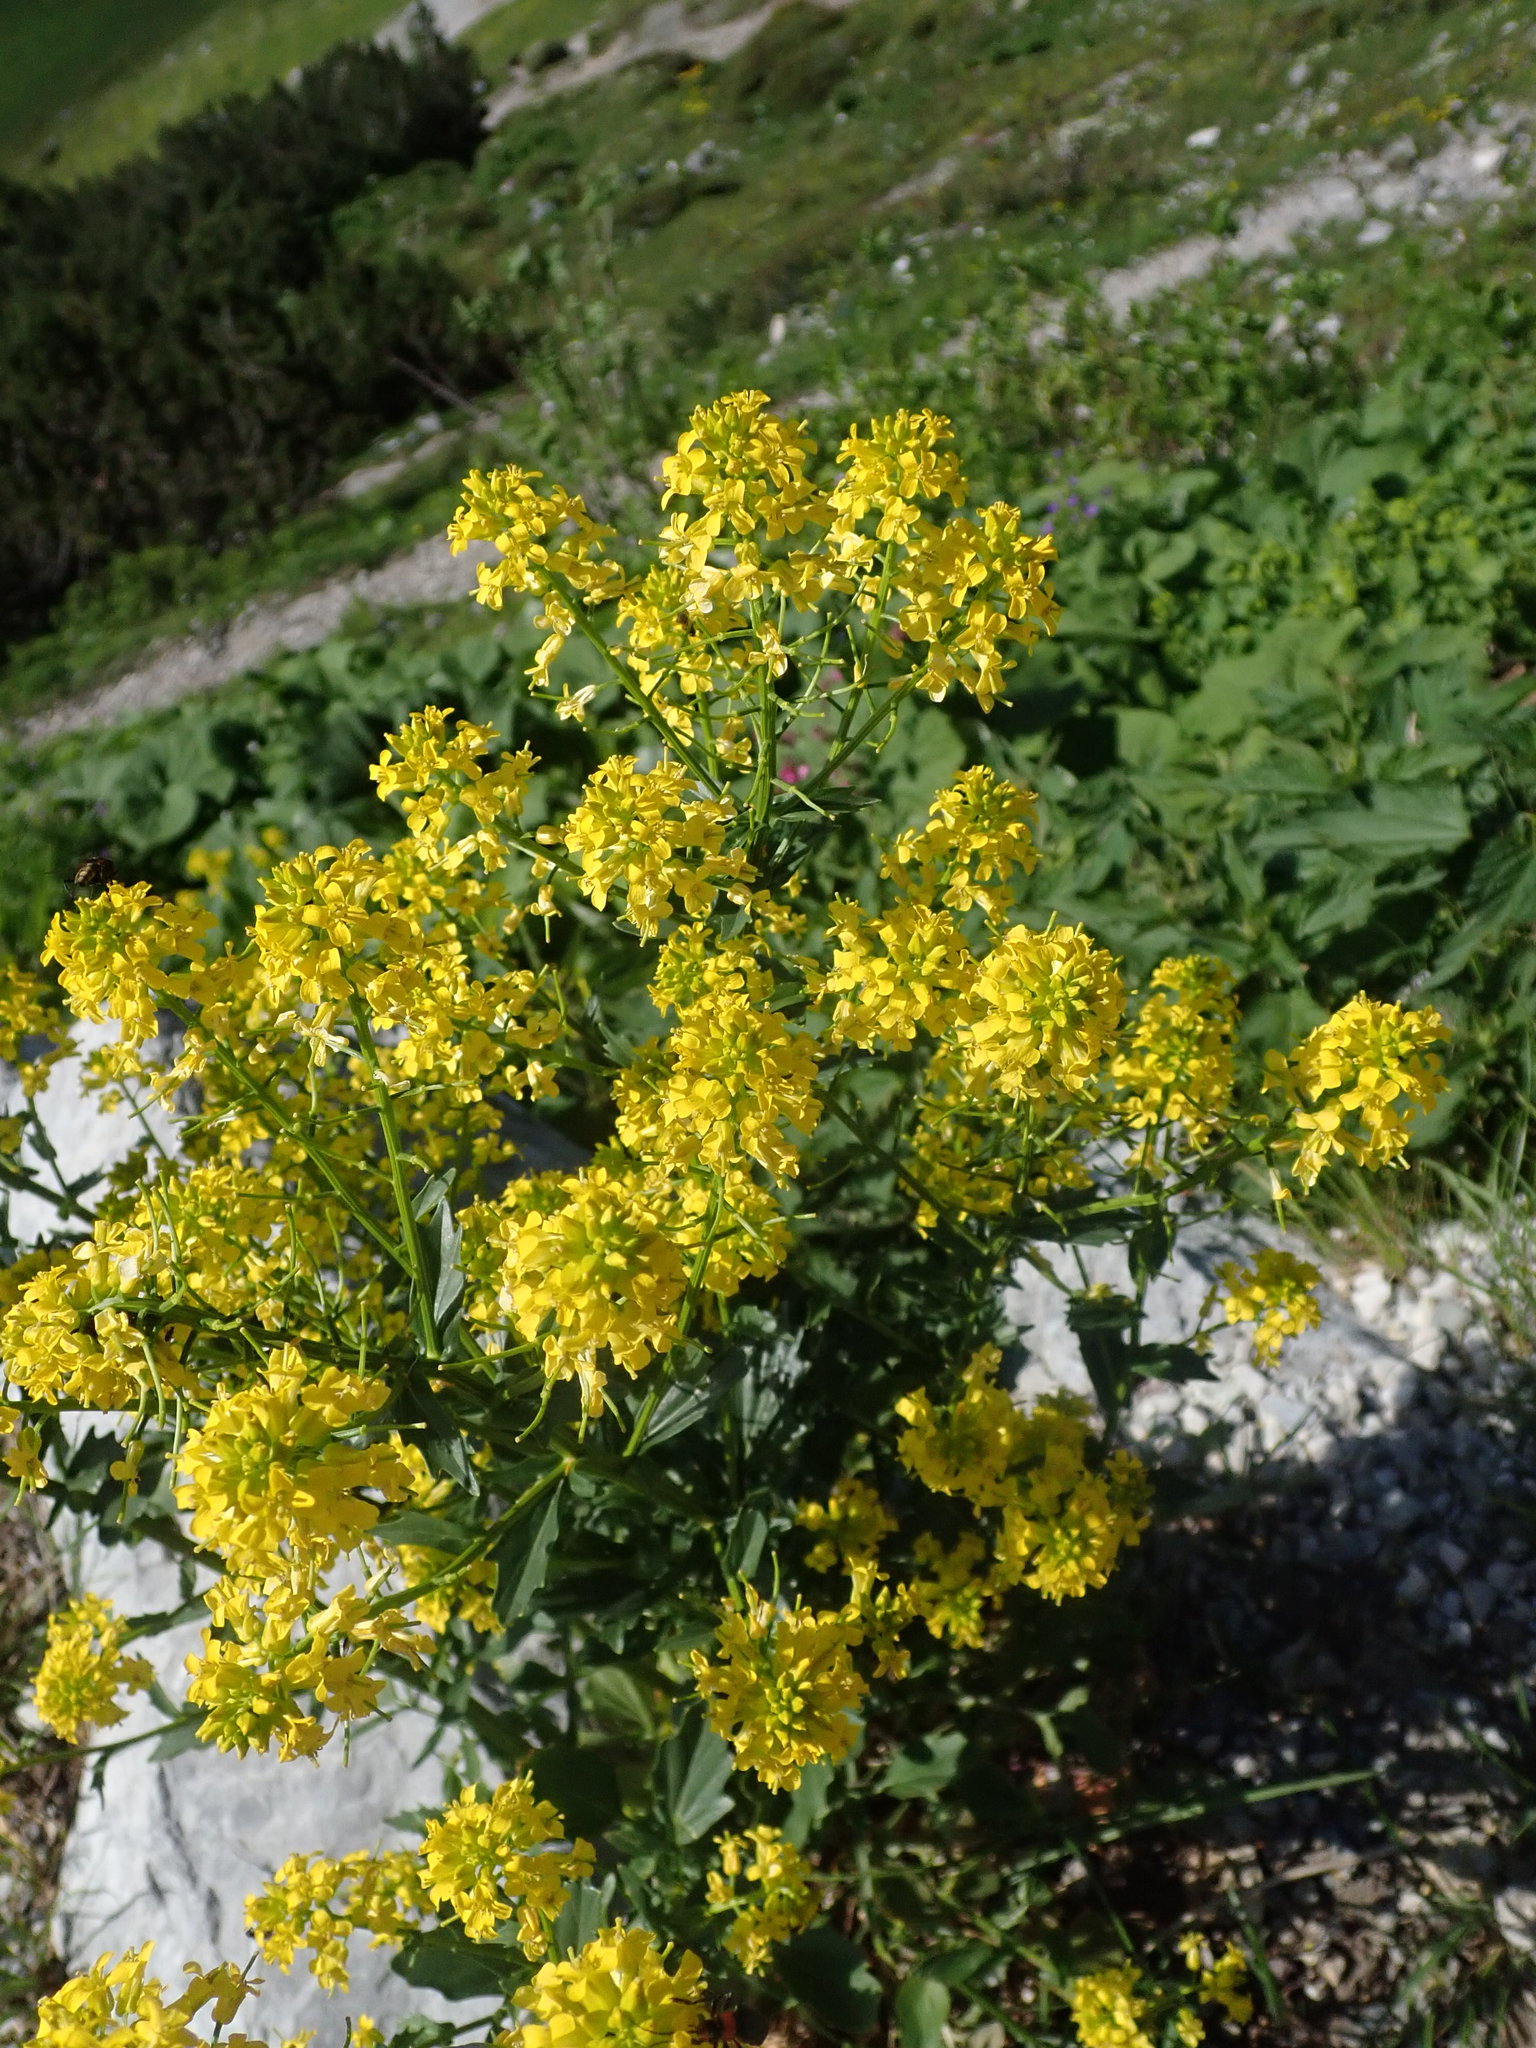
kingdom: Plantae
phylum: Tracheophyta
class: Magnoliopsida
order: Brassicales
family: Brassicaceae
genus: Barbarea
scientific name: Barbarea vulgaris
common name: Cressy-greens
